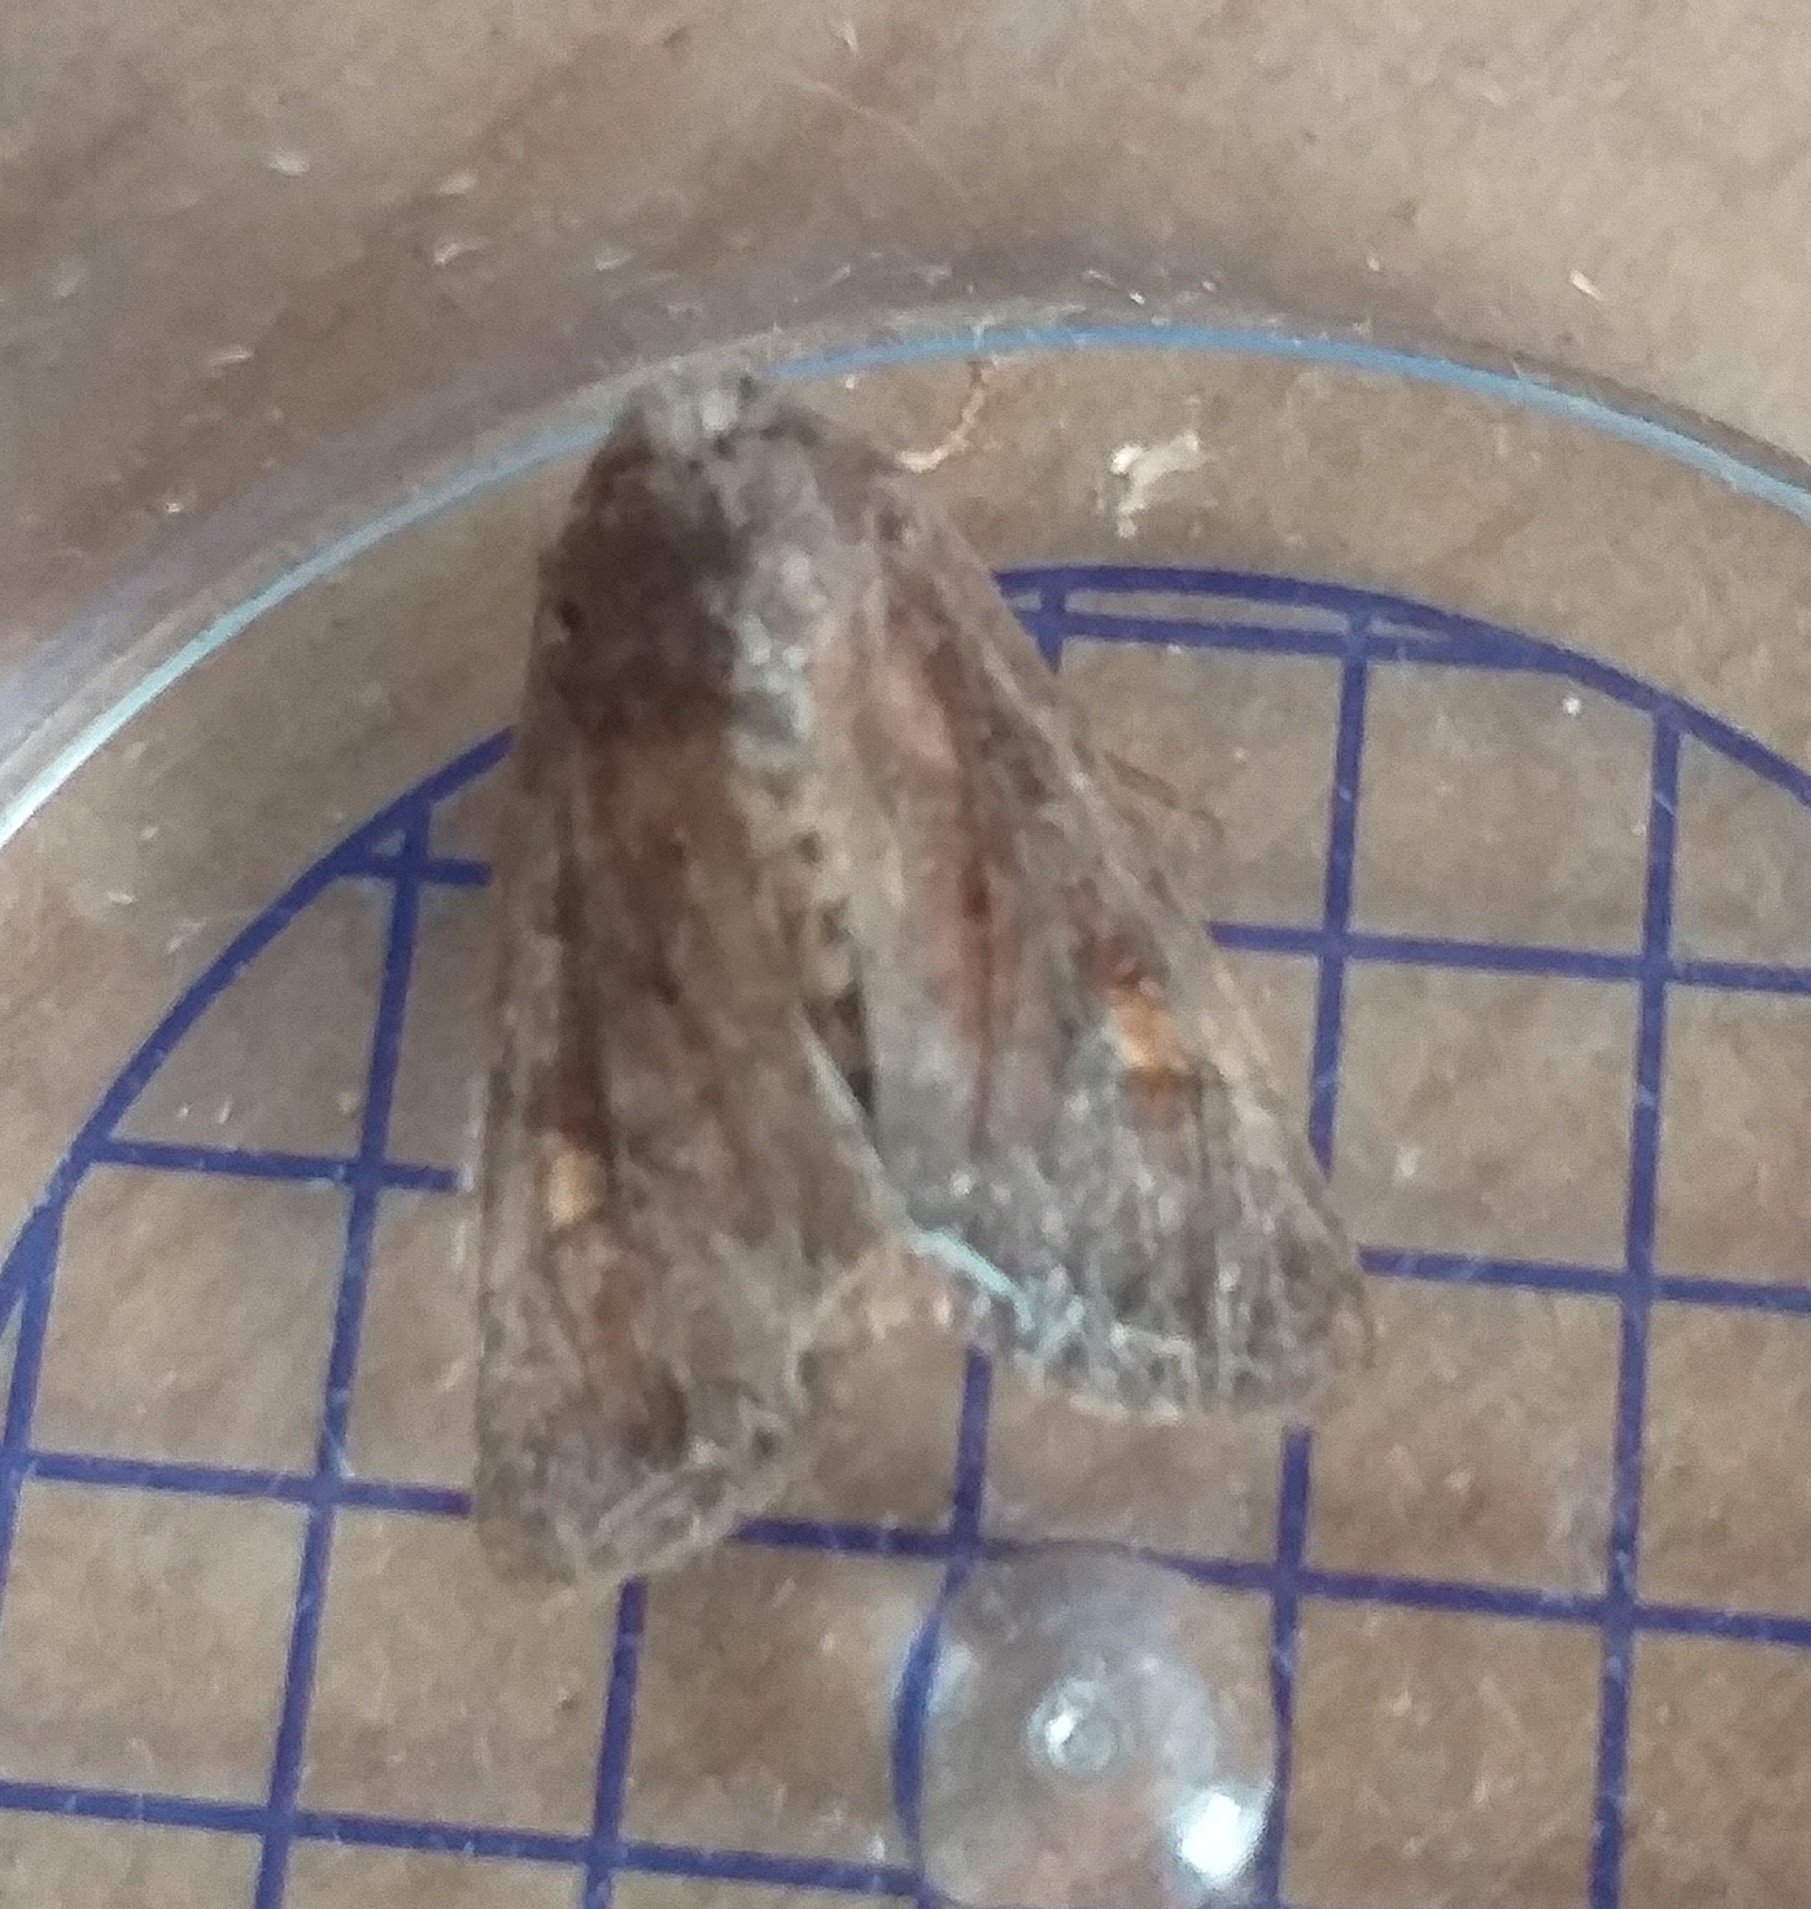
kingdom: Animalia
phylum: Arthropoda
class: Insecta
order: Lepidoptera
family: Noctuidae
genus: Lacanobia
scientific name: Lacanobia oleracea
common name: Bright-line brown-eye
